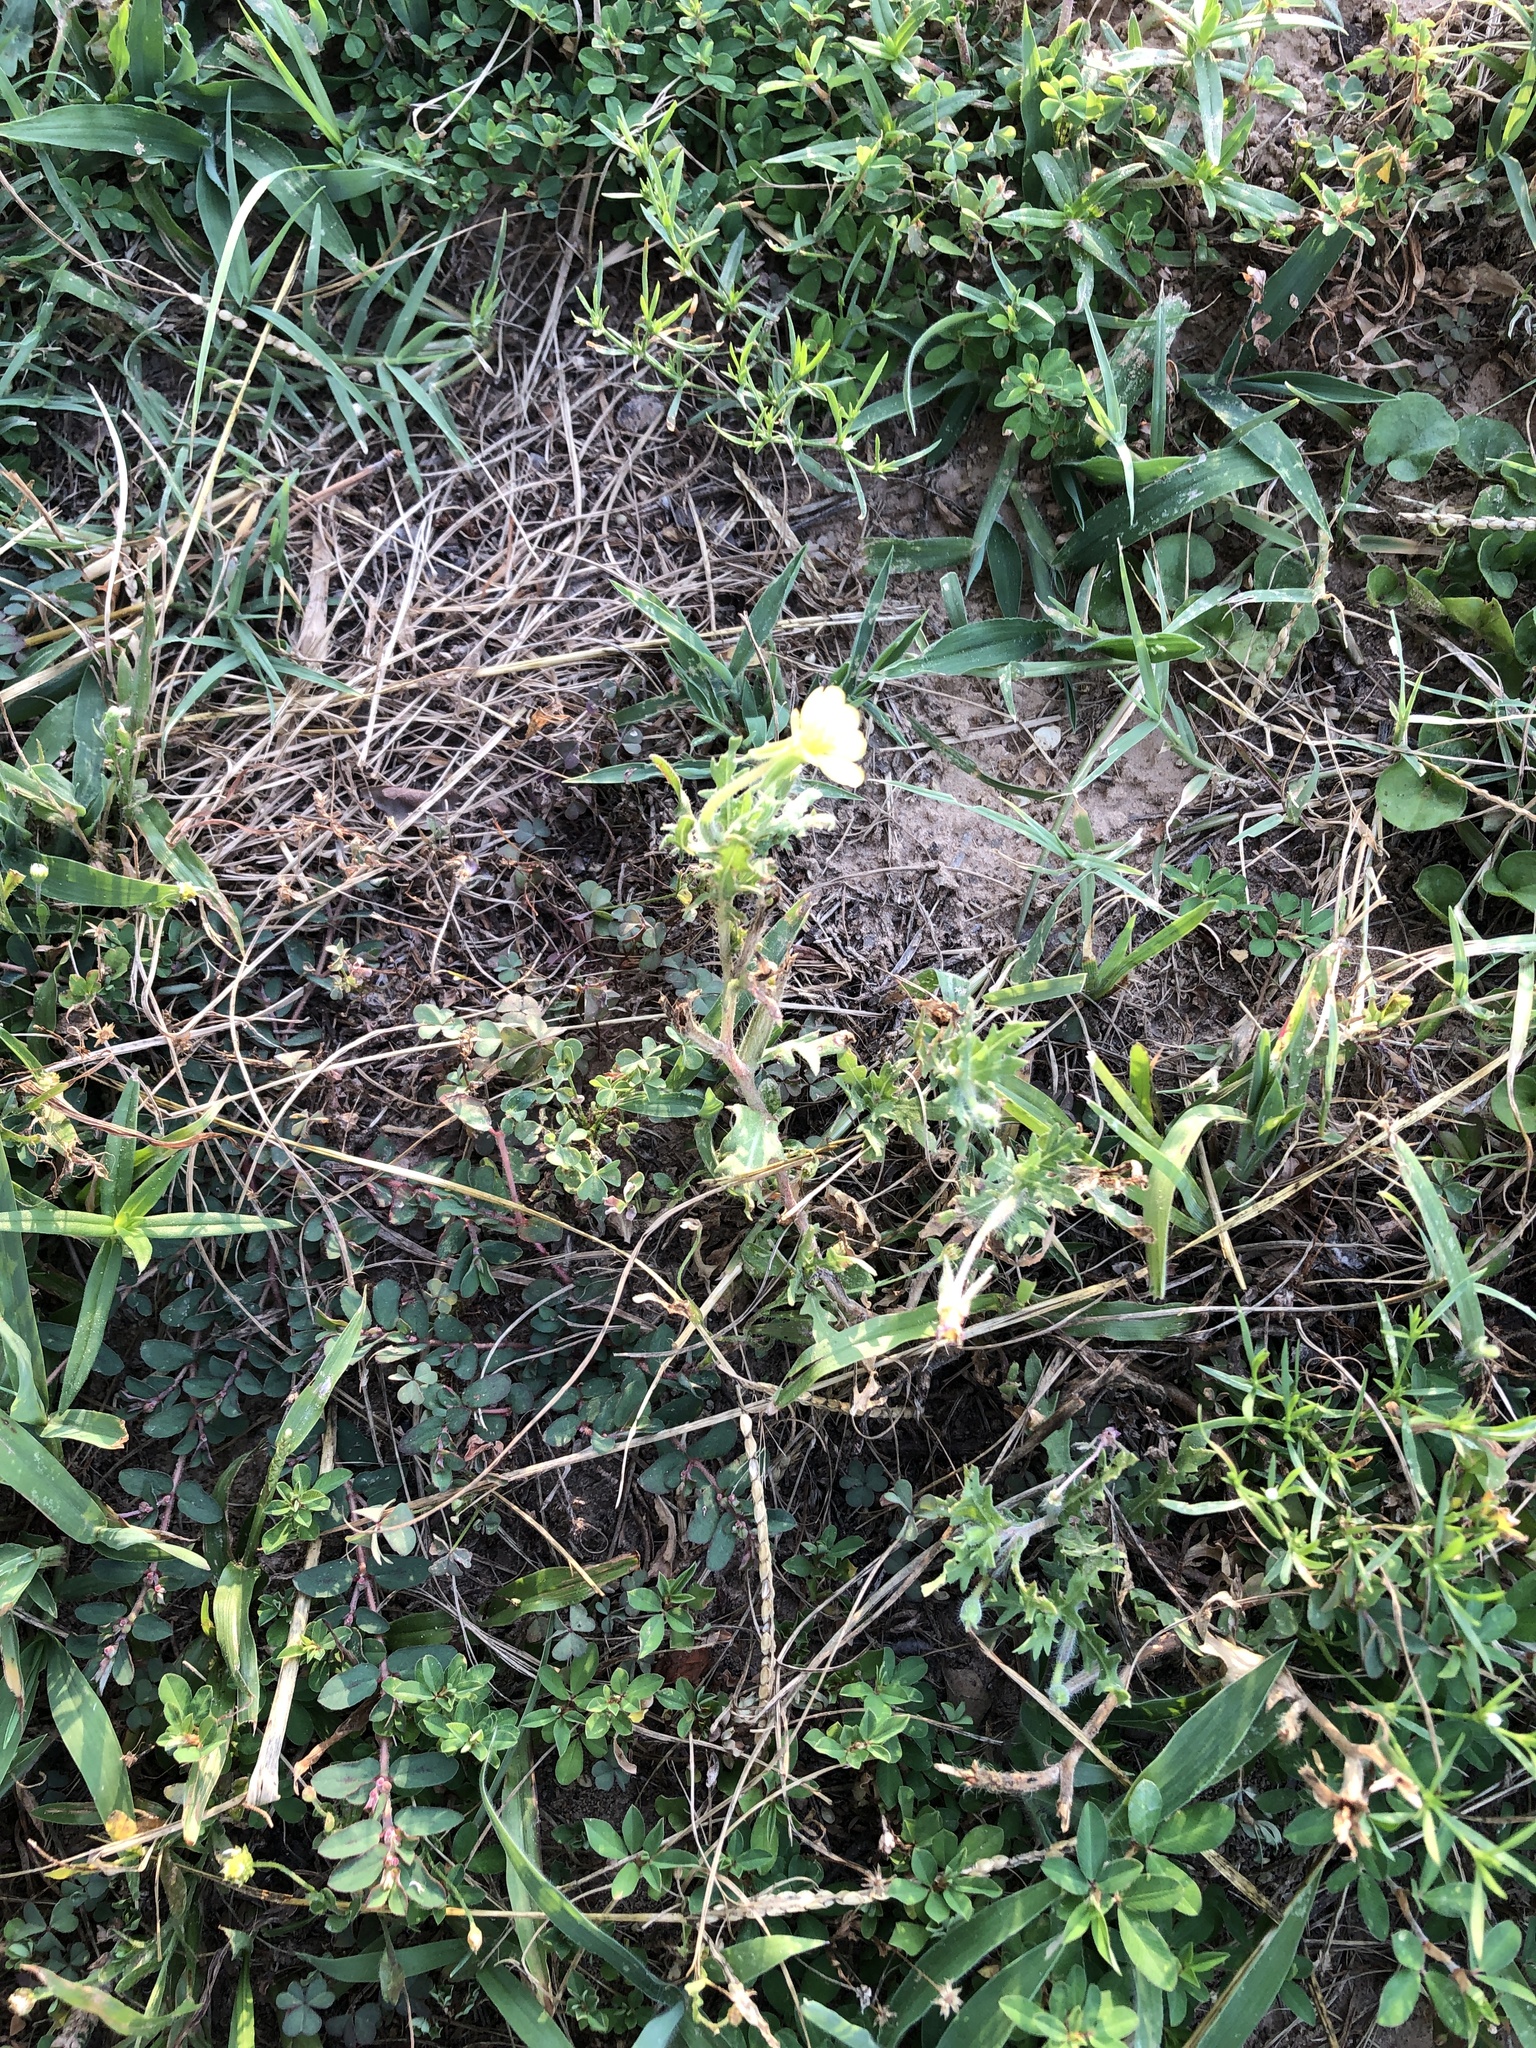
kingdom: Plantae
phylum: Tracheophyta
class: Magnoliopsida
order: Myrtales
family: Onagraceae
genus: Oenothera
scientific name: Oenothera laciniata
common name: Cut-leaved evening-primrose
